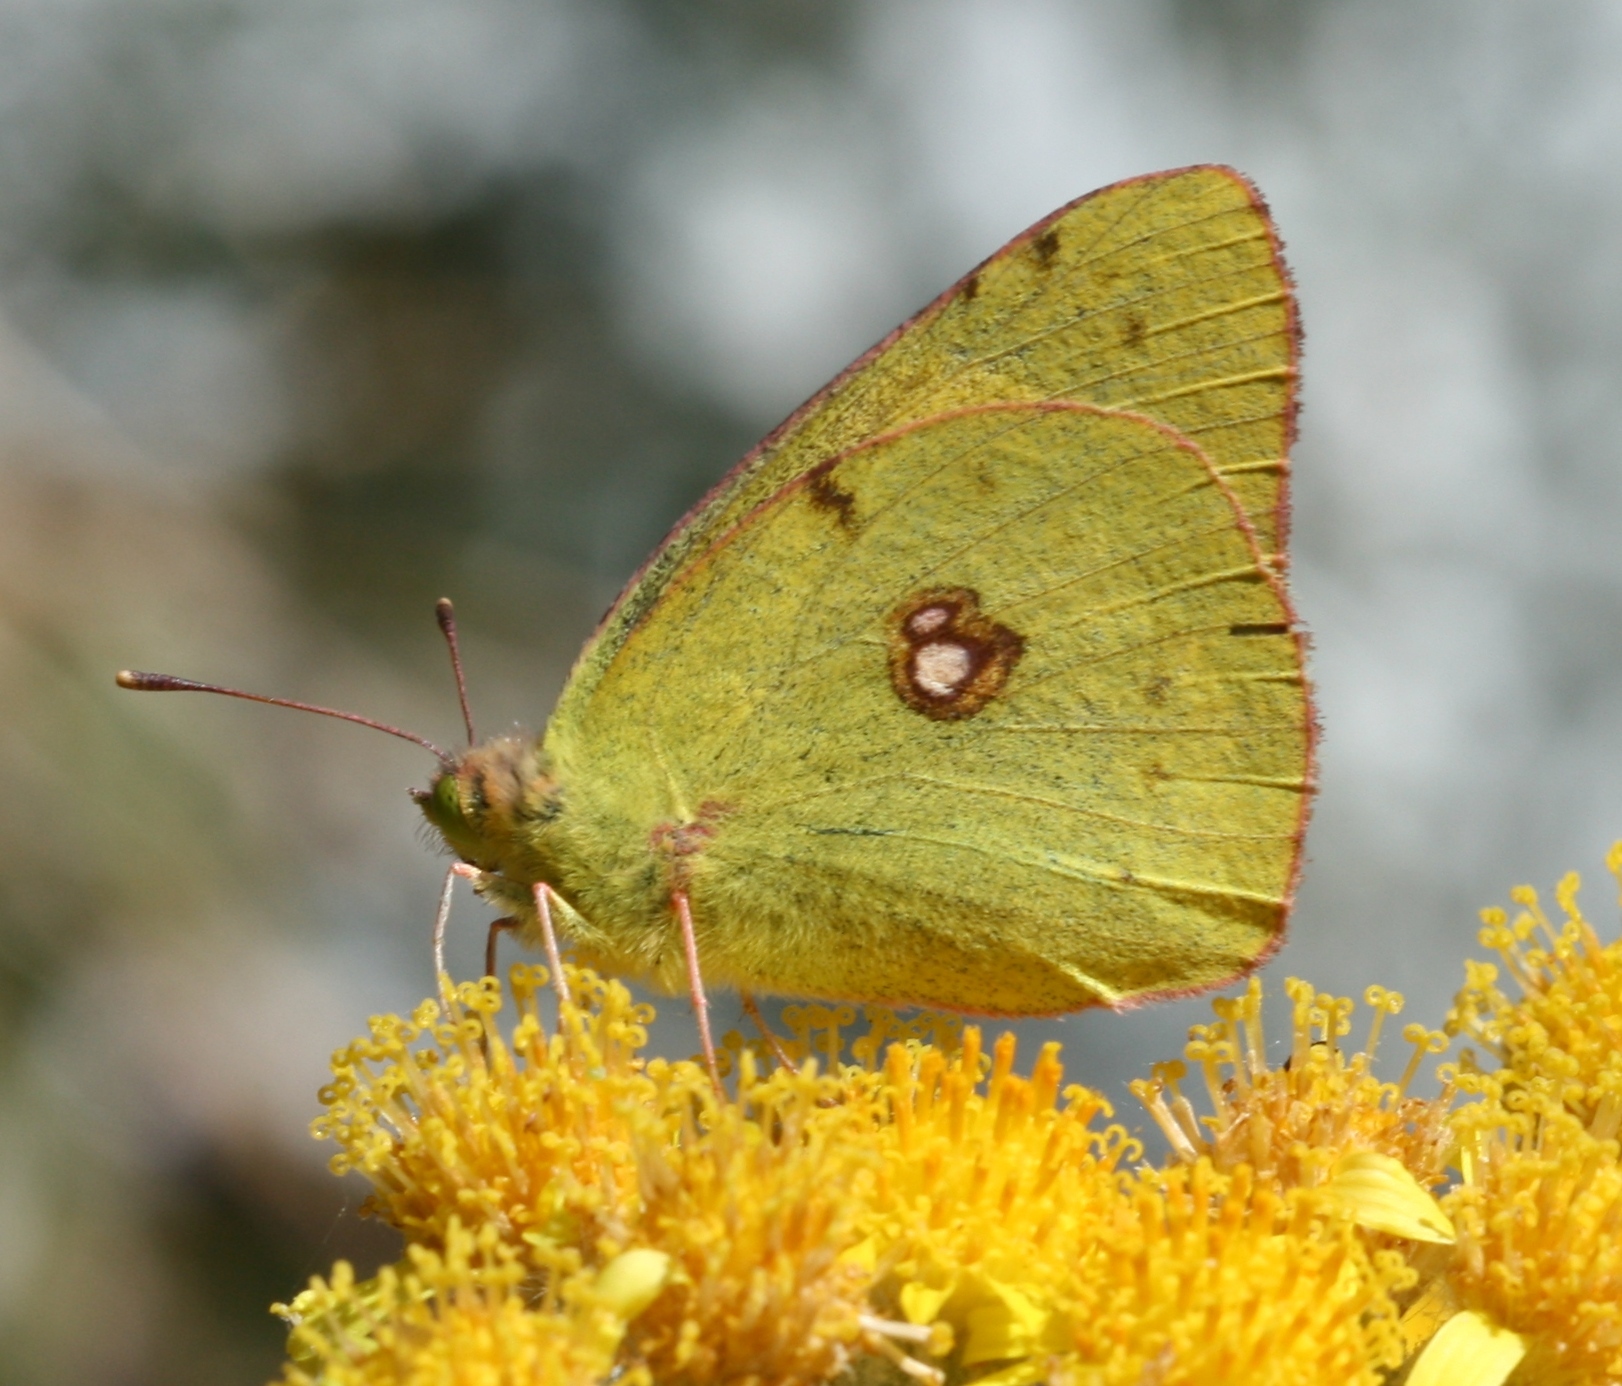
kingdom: Animalia
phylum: Arthropoda
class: Insecta
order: Lepidoptera
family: Pieridae
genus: Colias
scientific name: Colias croceus
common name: Clouded yellow
